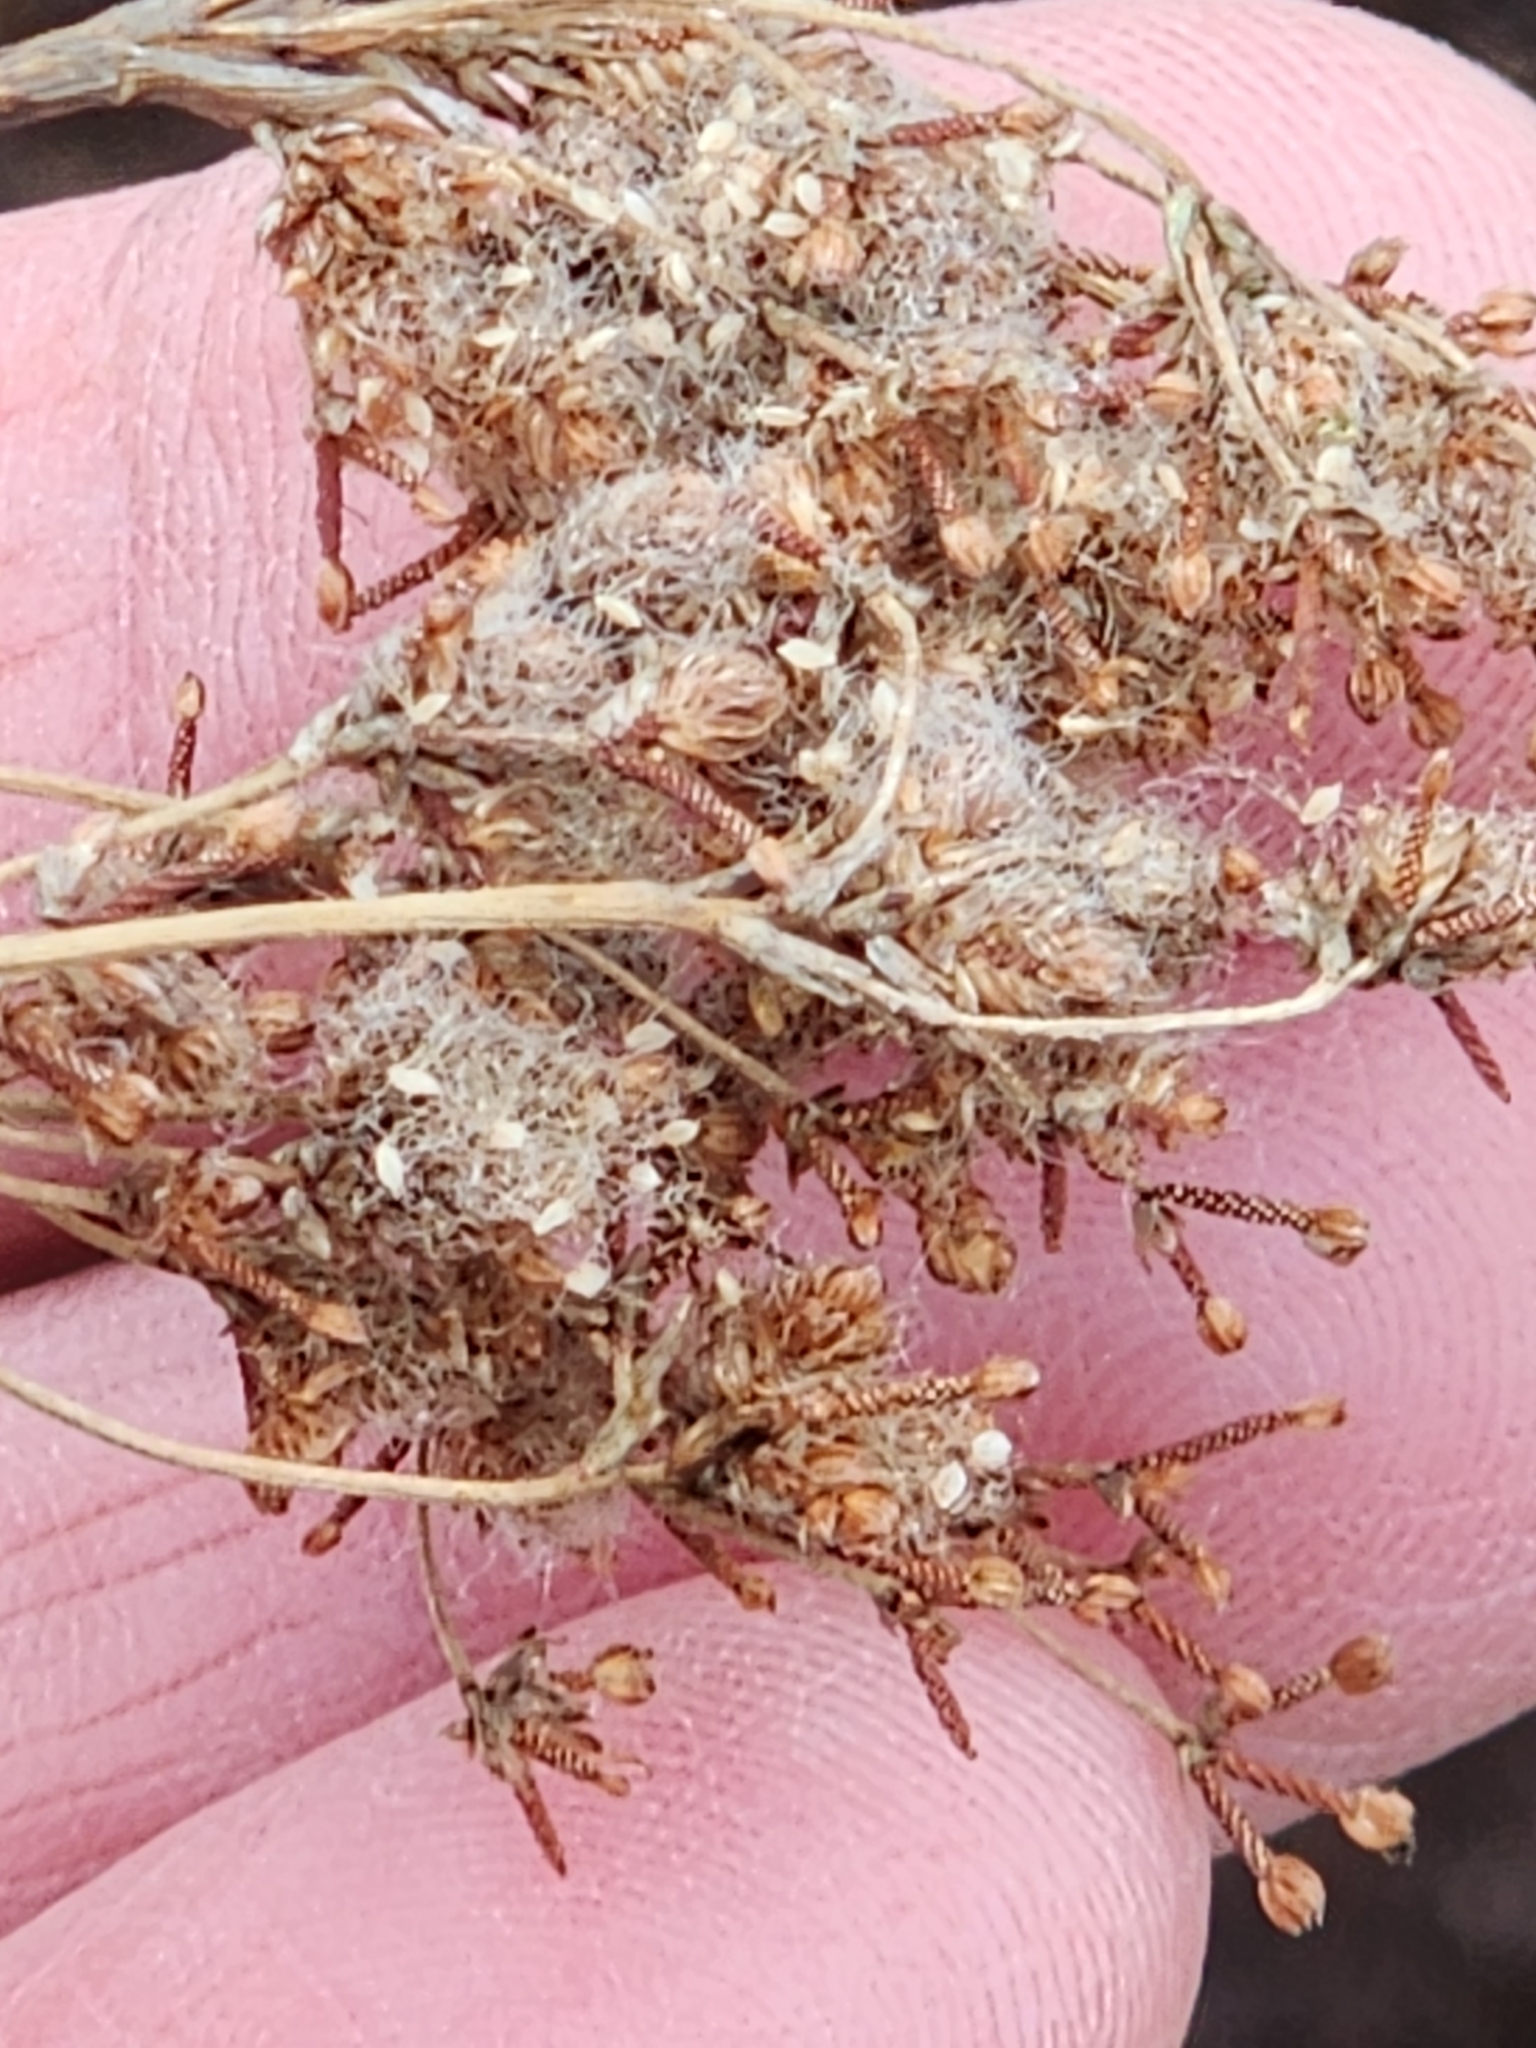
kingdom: Plantae
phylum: Tracheophyta
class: Liliopsida
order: Poales
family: Cyperaceae
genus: Scirpus
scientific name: Scirpus cyperinus
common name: Black-sheathed bulrush
